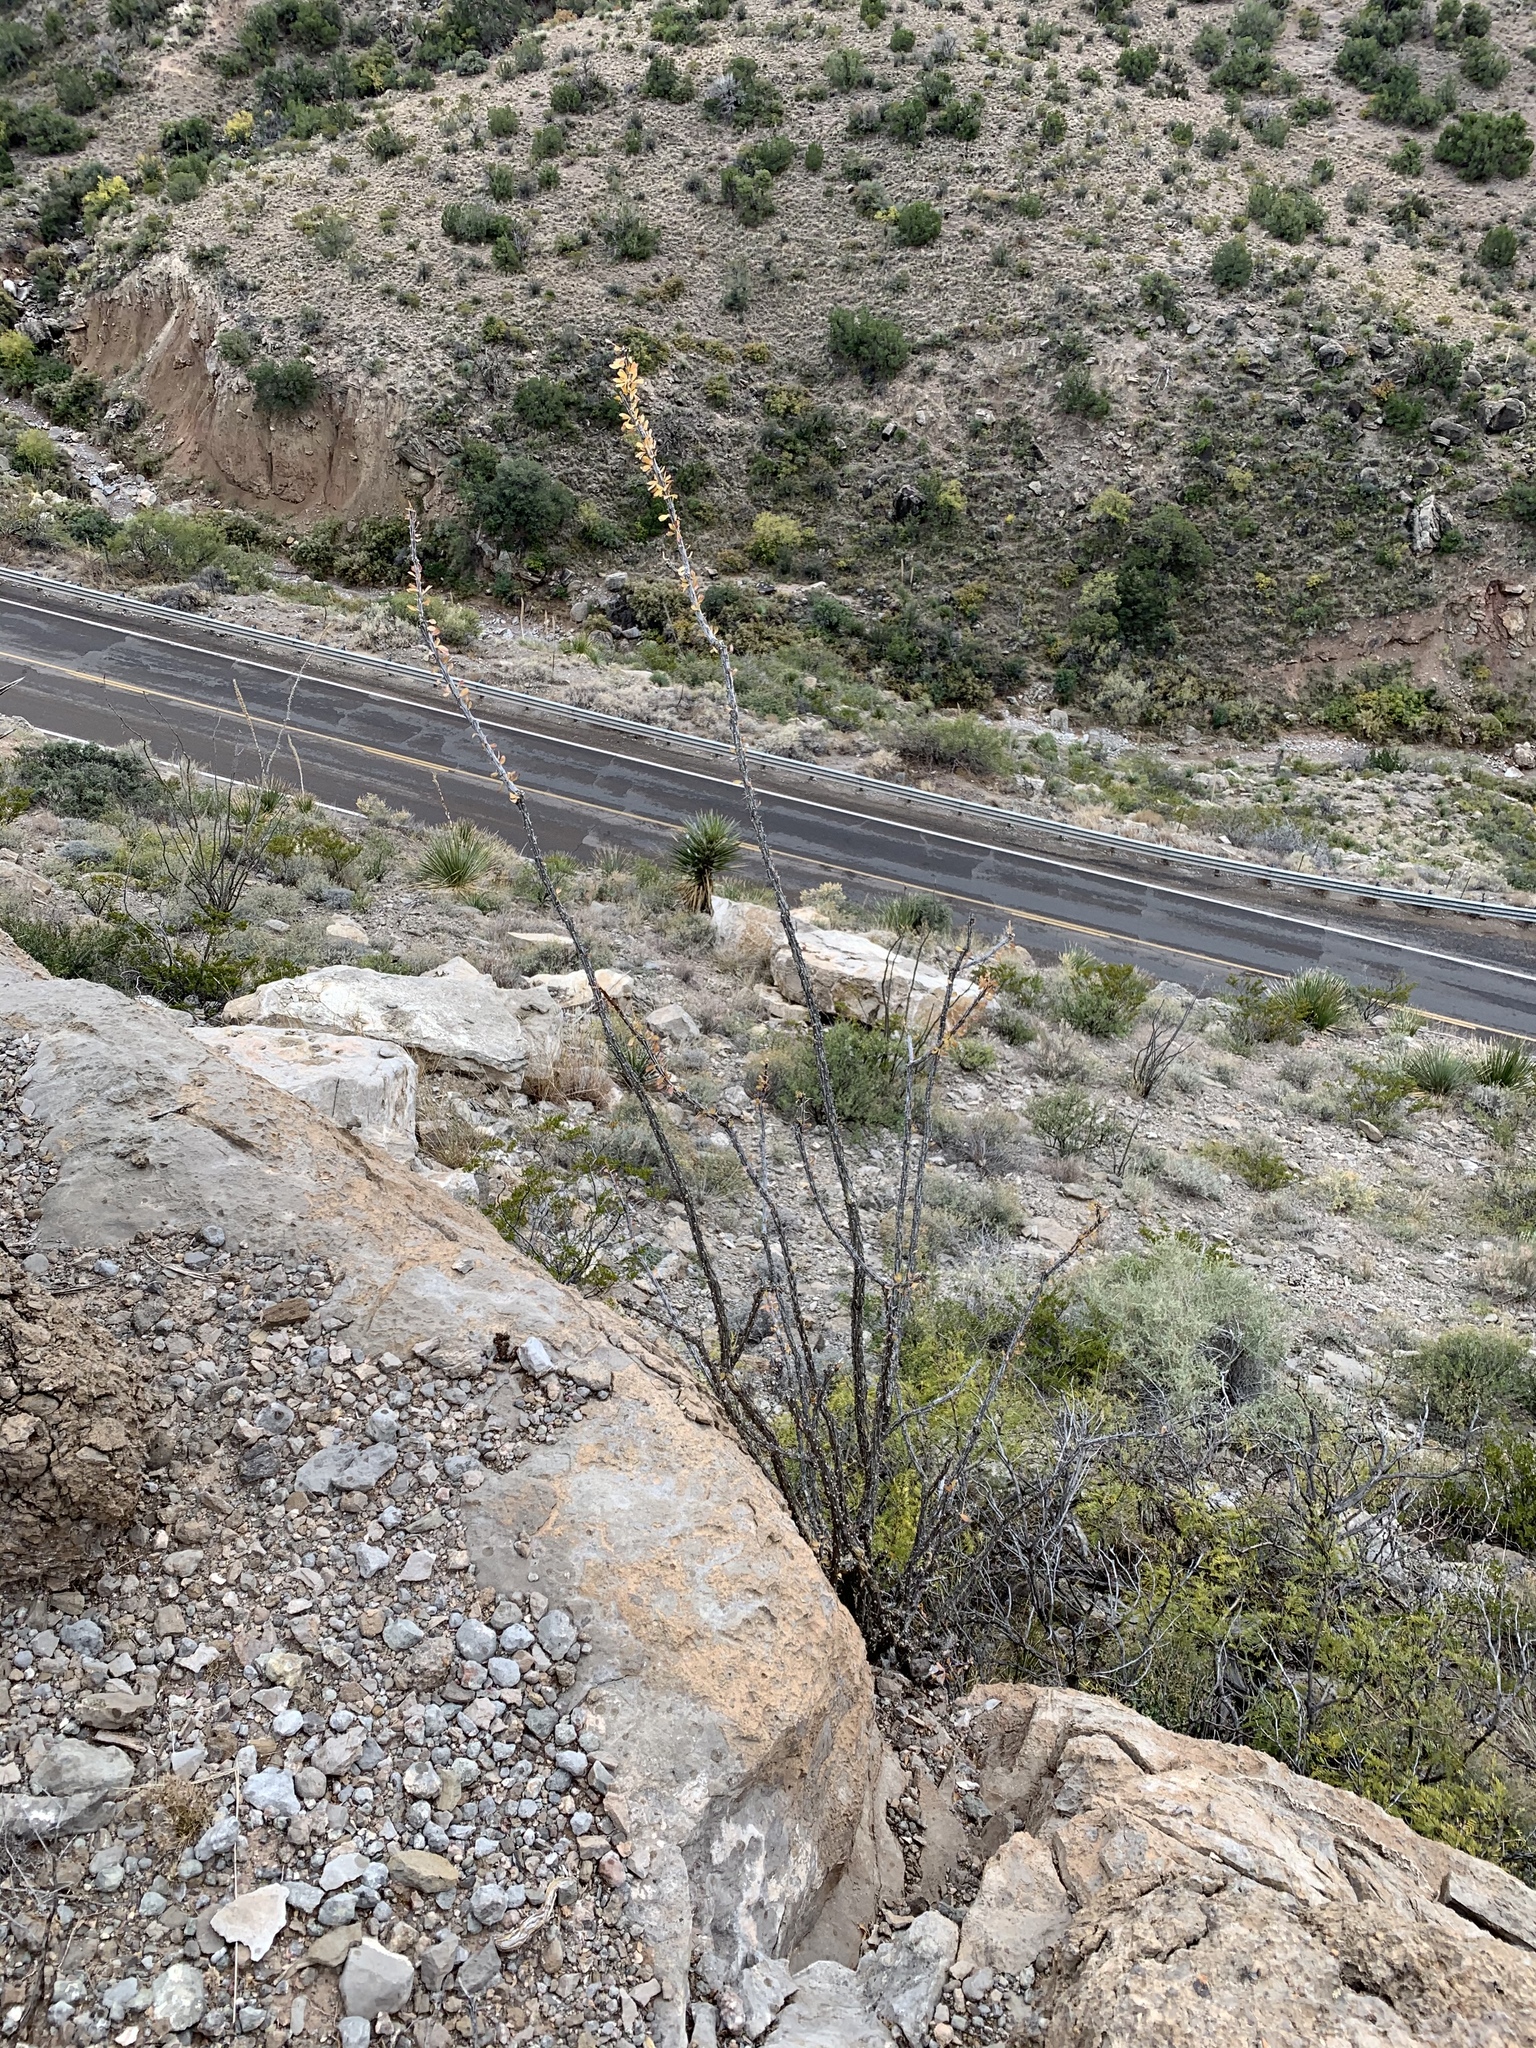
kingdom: Plantae
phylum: Tracheophyta
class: Magnoliopsida
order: Ericales
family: Fouquieriaceae
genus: Fouquieria
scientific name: Fouquieria splendens
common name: Vine-cactus
